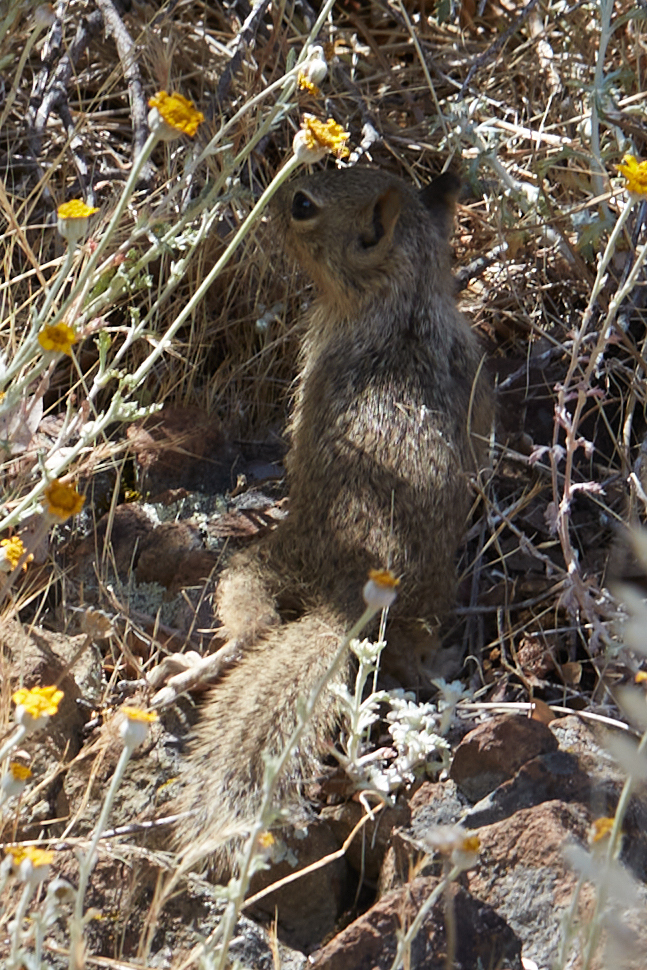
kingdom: Animalia
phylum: Chordata
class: Mammalia
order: Rodentia
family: Sciuridae
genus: Otospermophilus
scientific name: Otospermophilus beecheyi
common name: California ground squirrel
